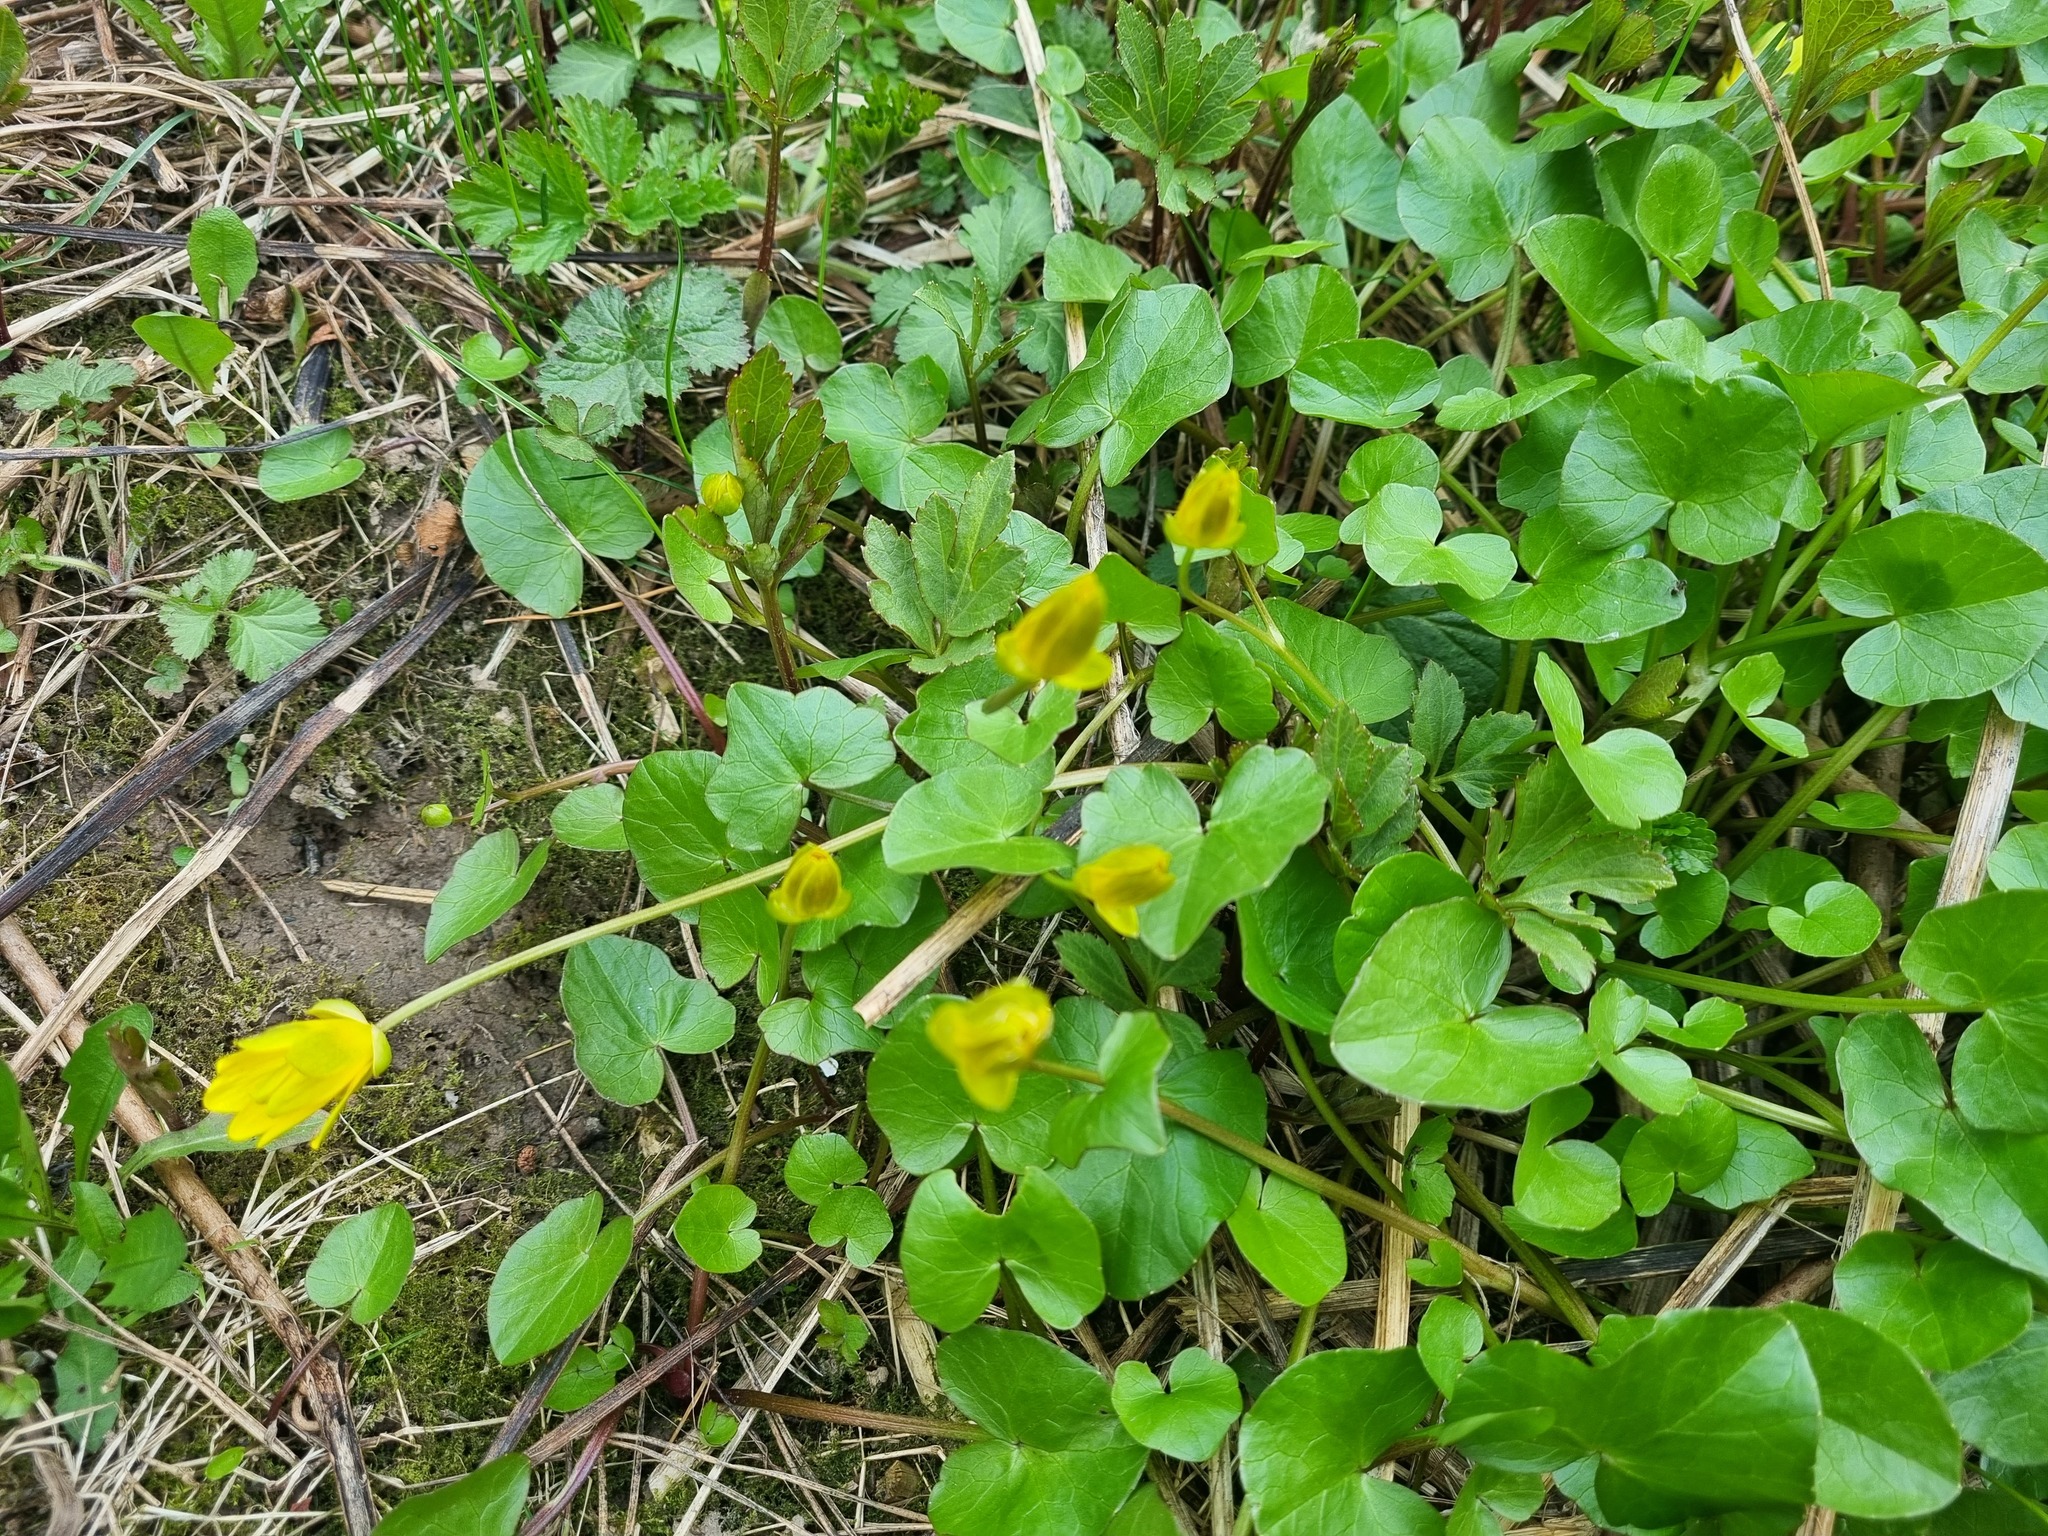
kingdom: Plantae
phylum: Tracheophyta
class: Magnoliopsida
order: Ranunculales
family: Ranunculaceae
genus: Ficaria
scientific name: Ficaria verna
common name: Lesser celandine
